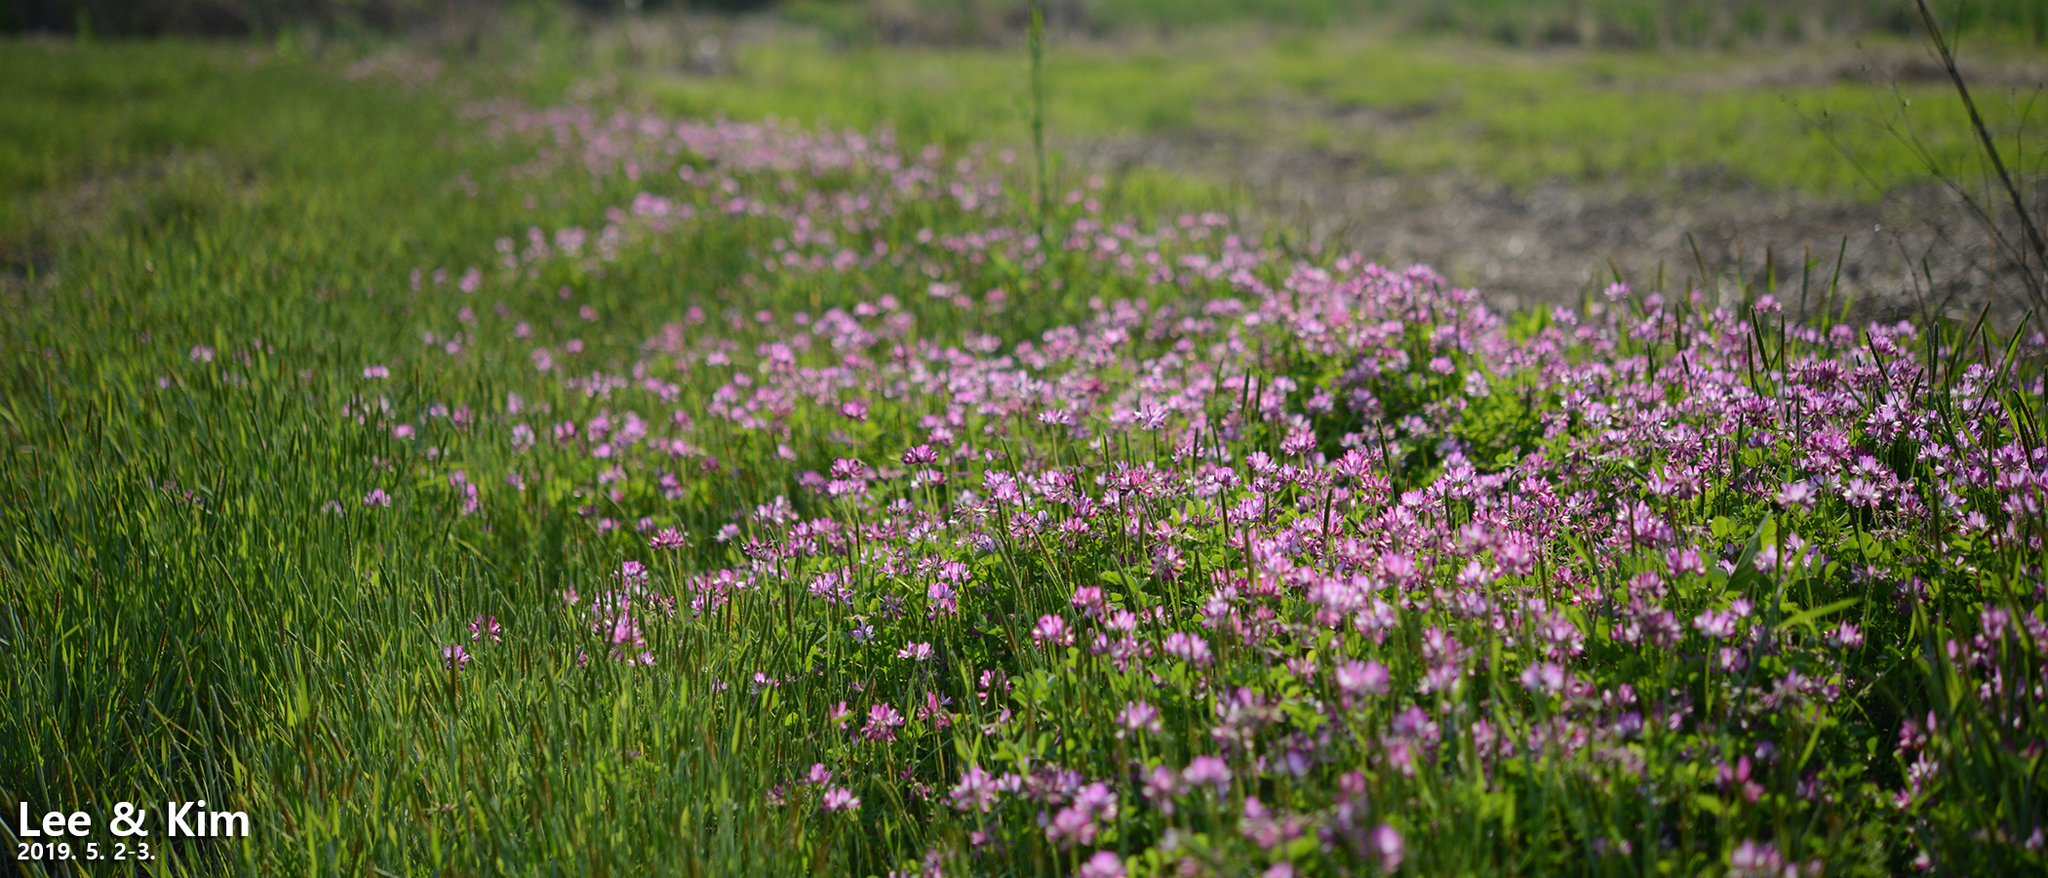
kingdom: Plantae
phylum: Tracheophyta
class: Magnoliopsida
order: Fabales
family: Fabaceae
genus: Astragalus
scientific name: Astragalus sinicus
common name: Chinese milk-vetch
